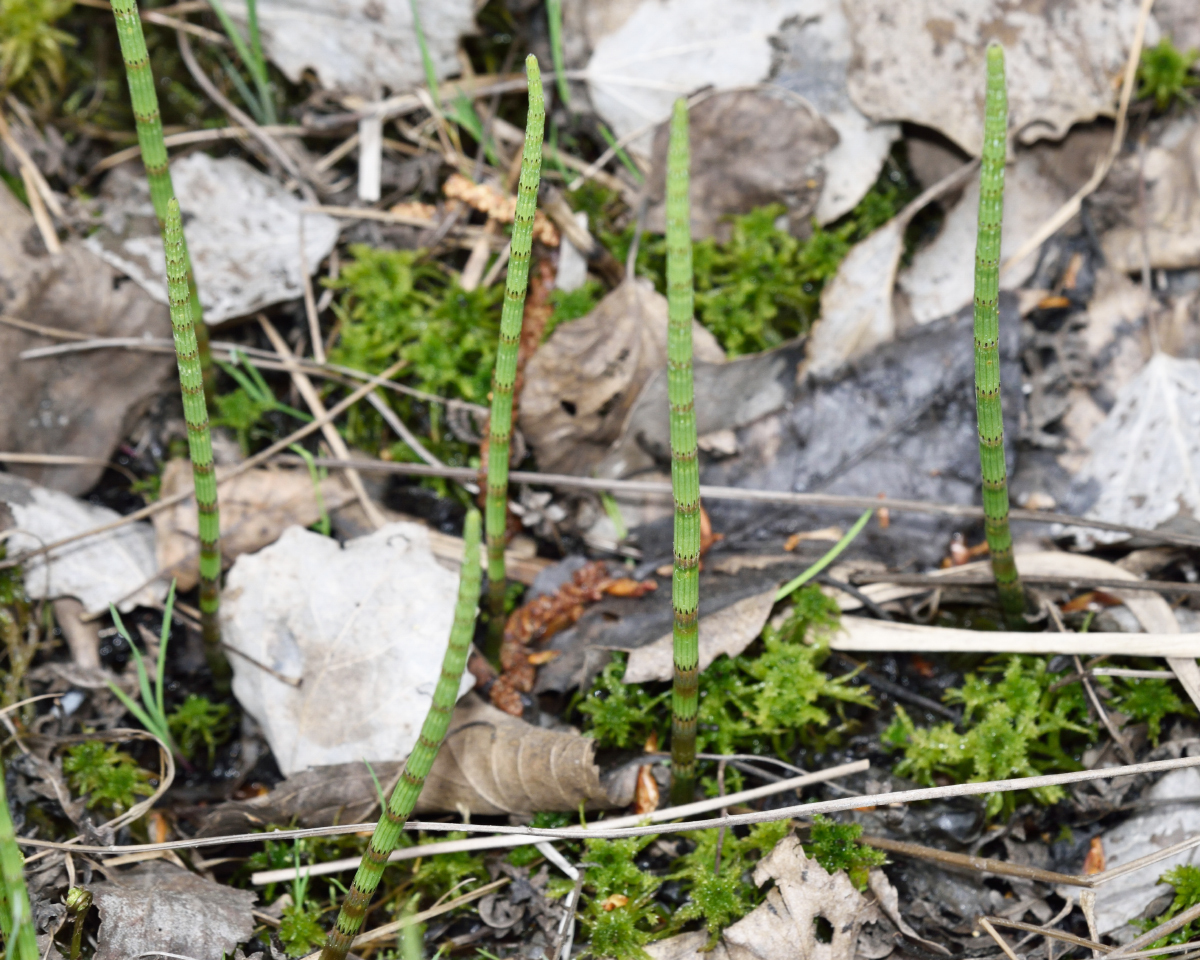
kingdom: Plantae
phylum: Tracheophyta
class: Polypodiopsida
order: Equisetales
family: Equisetaceae
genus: Equisetum
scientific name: Equisetum fluviatile
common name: Water horsetail
